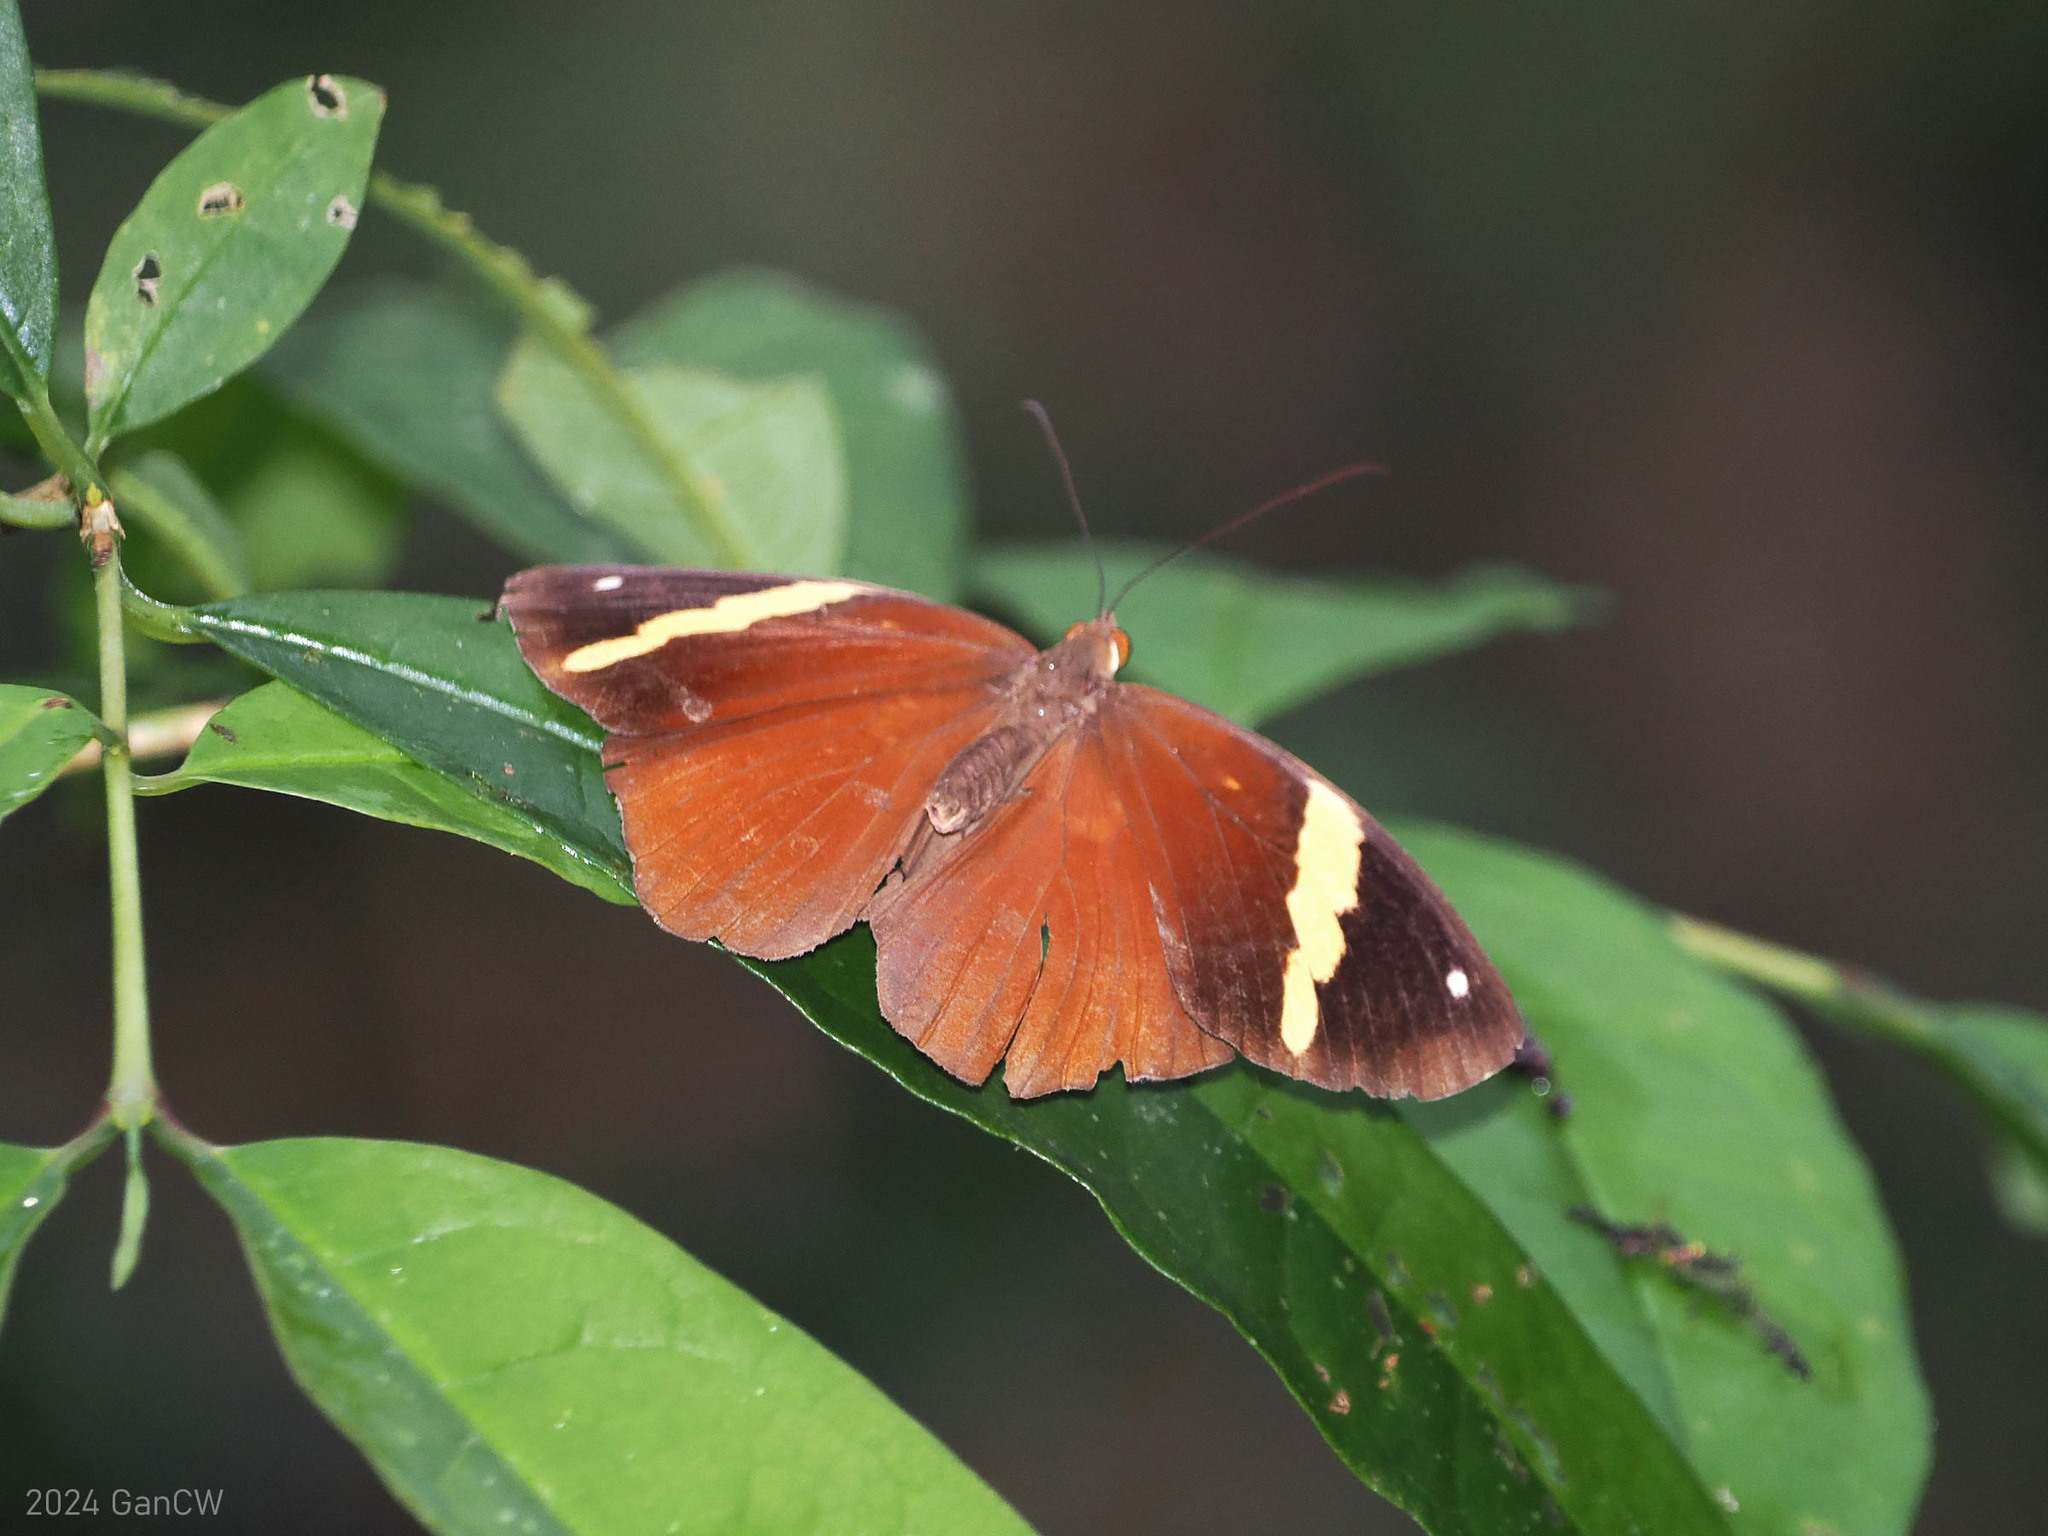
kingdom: Animalia
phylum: Arthropoda
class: Insecta
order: Lepidoptera
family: Nymphalidae
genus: Xanthotaenia
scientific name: Xanthotaenia busiris
